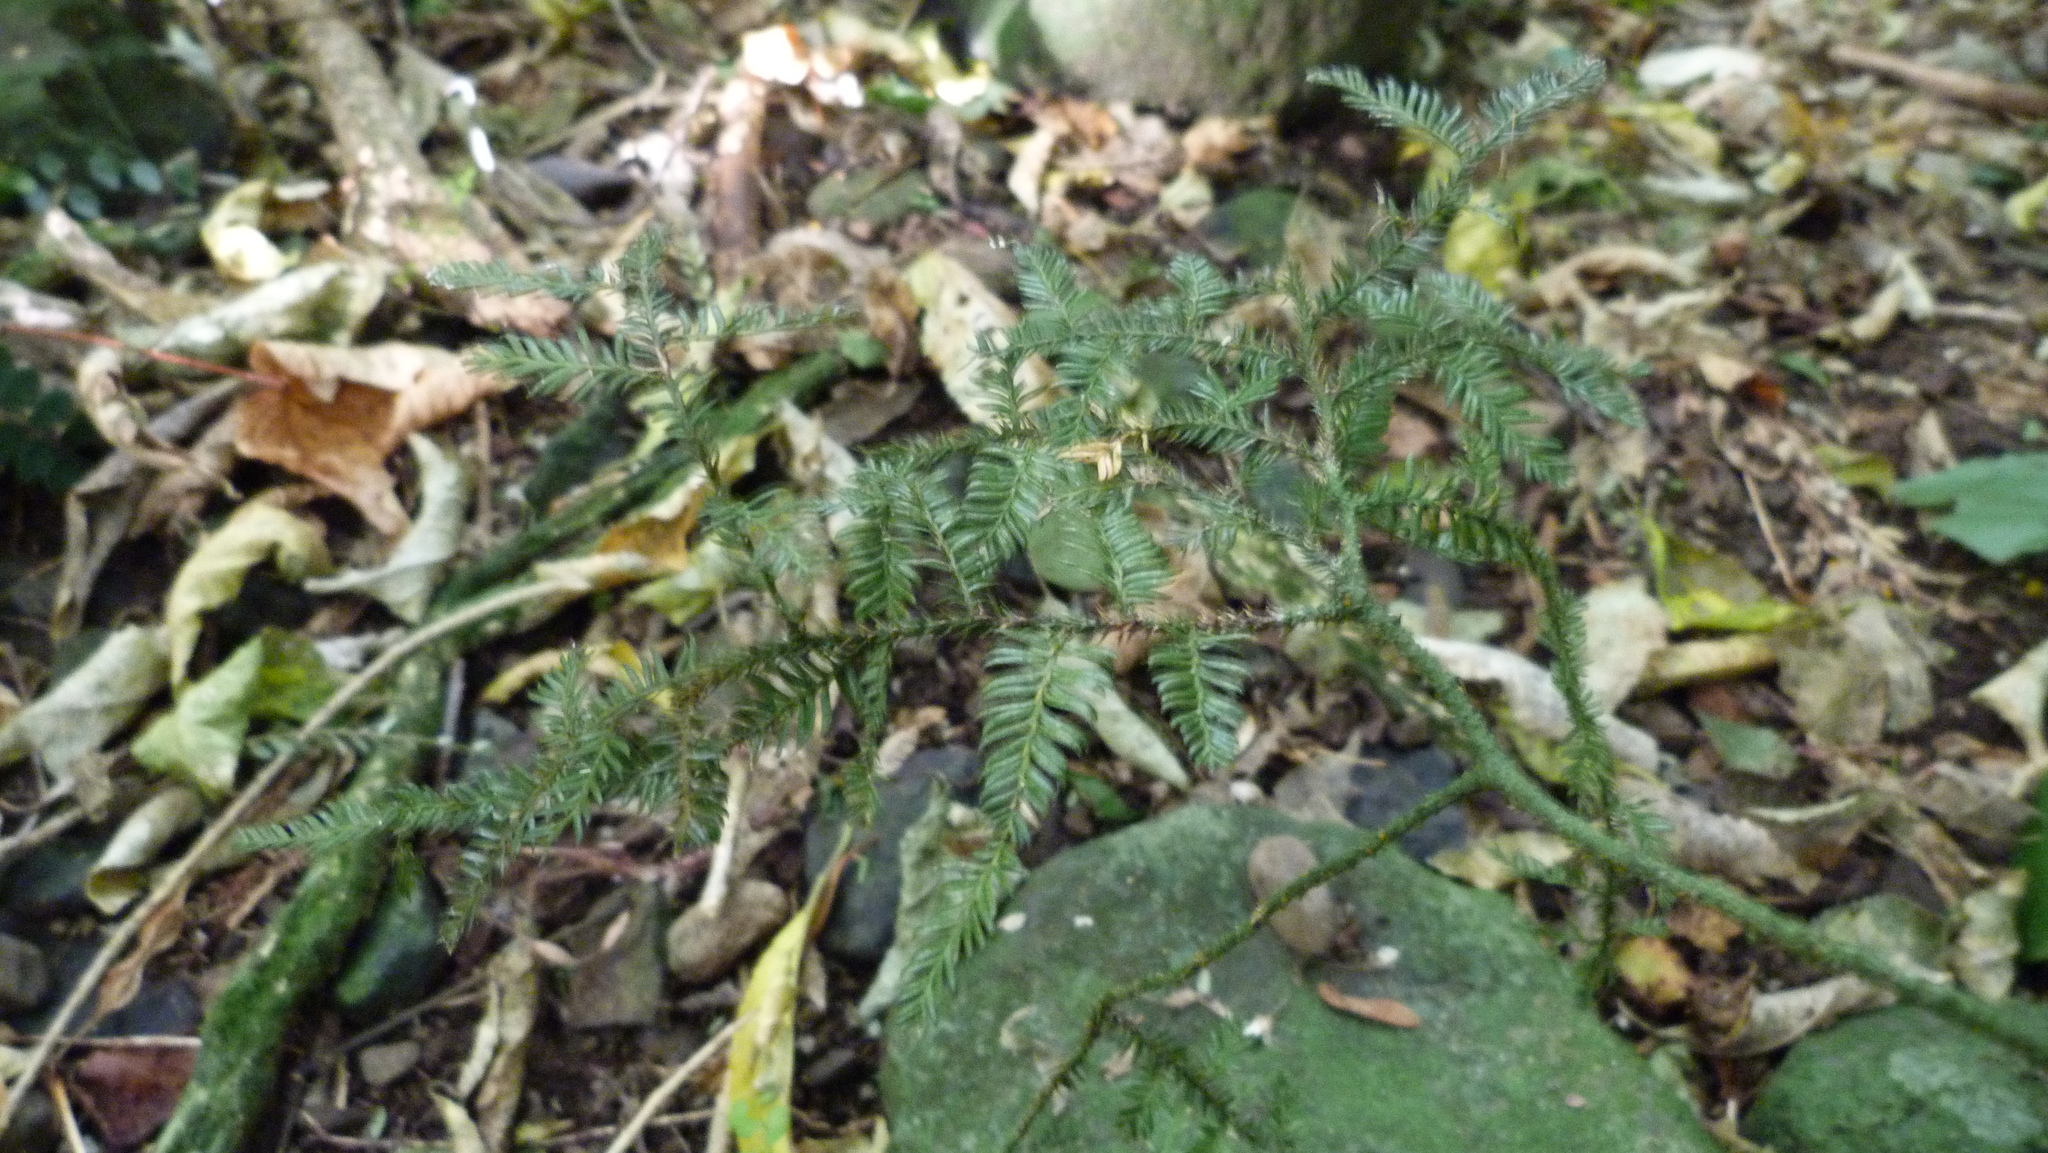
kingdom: Plantae
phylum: Tracheophyta
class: Pinopsida
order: Pinales
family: Podocarpaceae
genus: Dacrycarpus
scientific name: Dacrycarpus dacrydioides
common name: White pine
